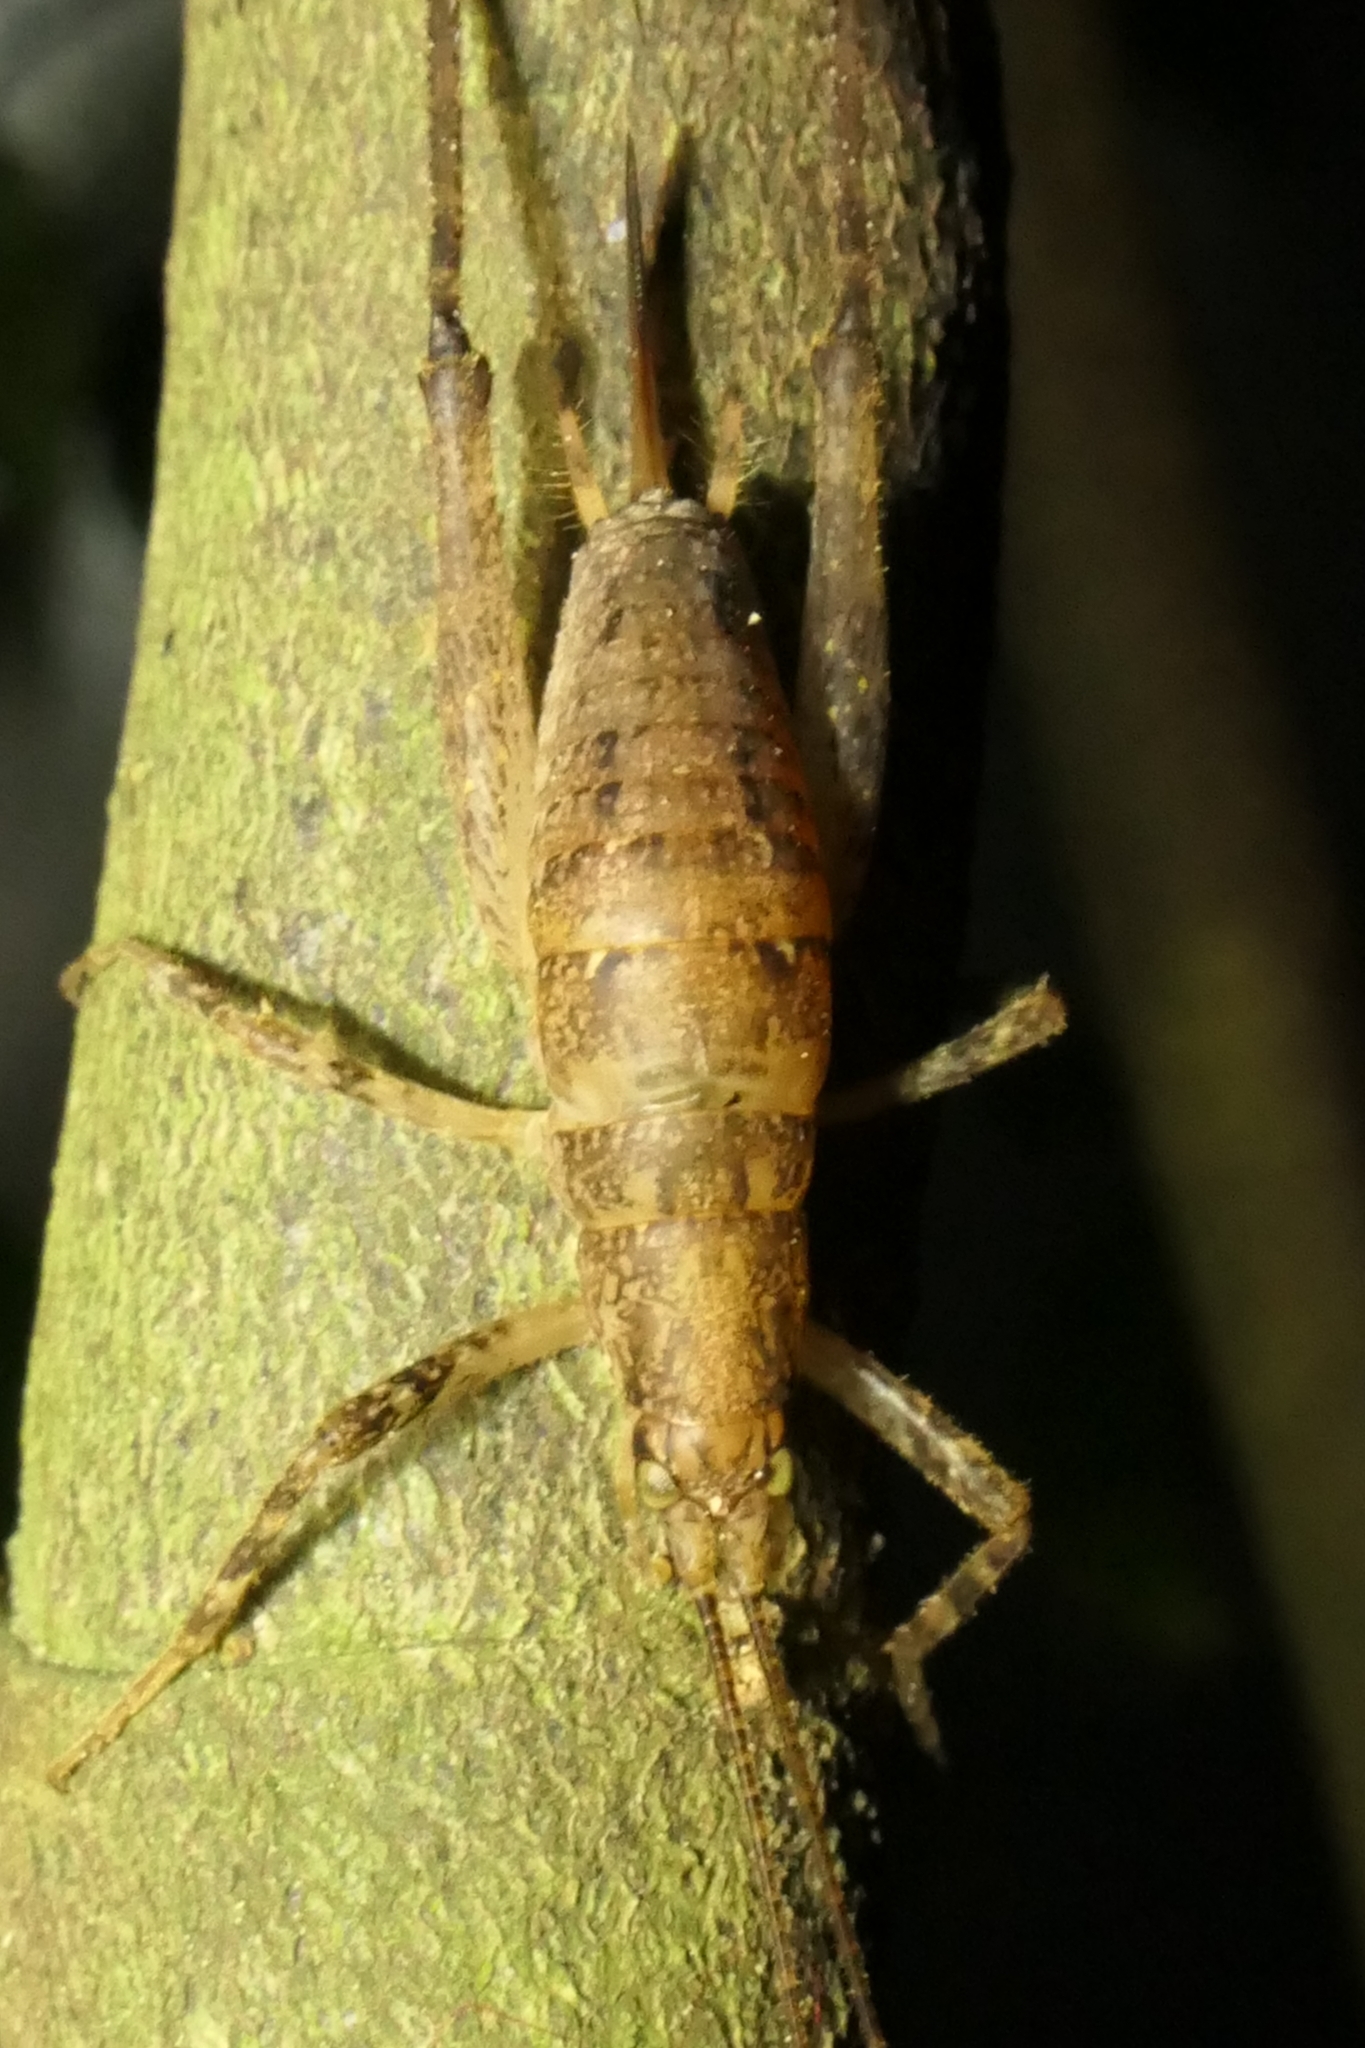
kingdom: Animalia
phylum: Arthropoda
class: Insecta
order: Orthoptera
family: Rhaphidophoridae
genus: Isoplectron
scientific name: Isoplectron armatum
